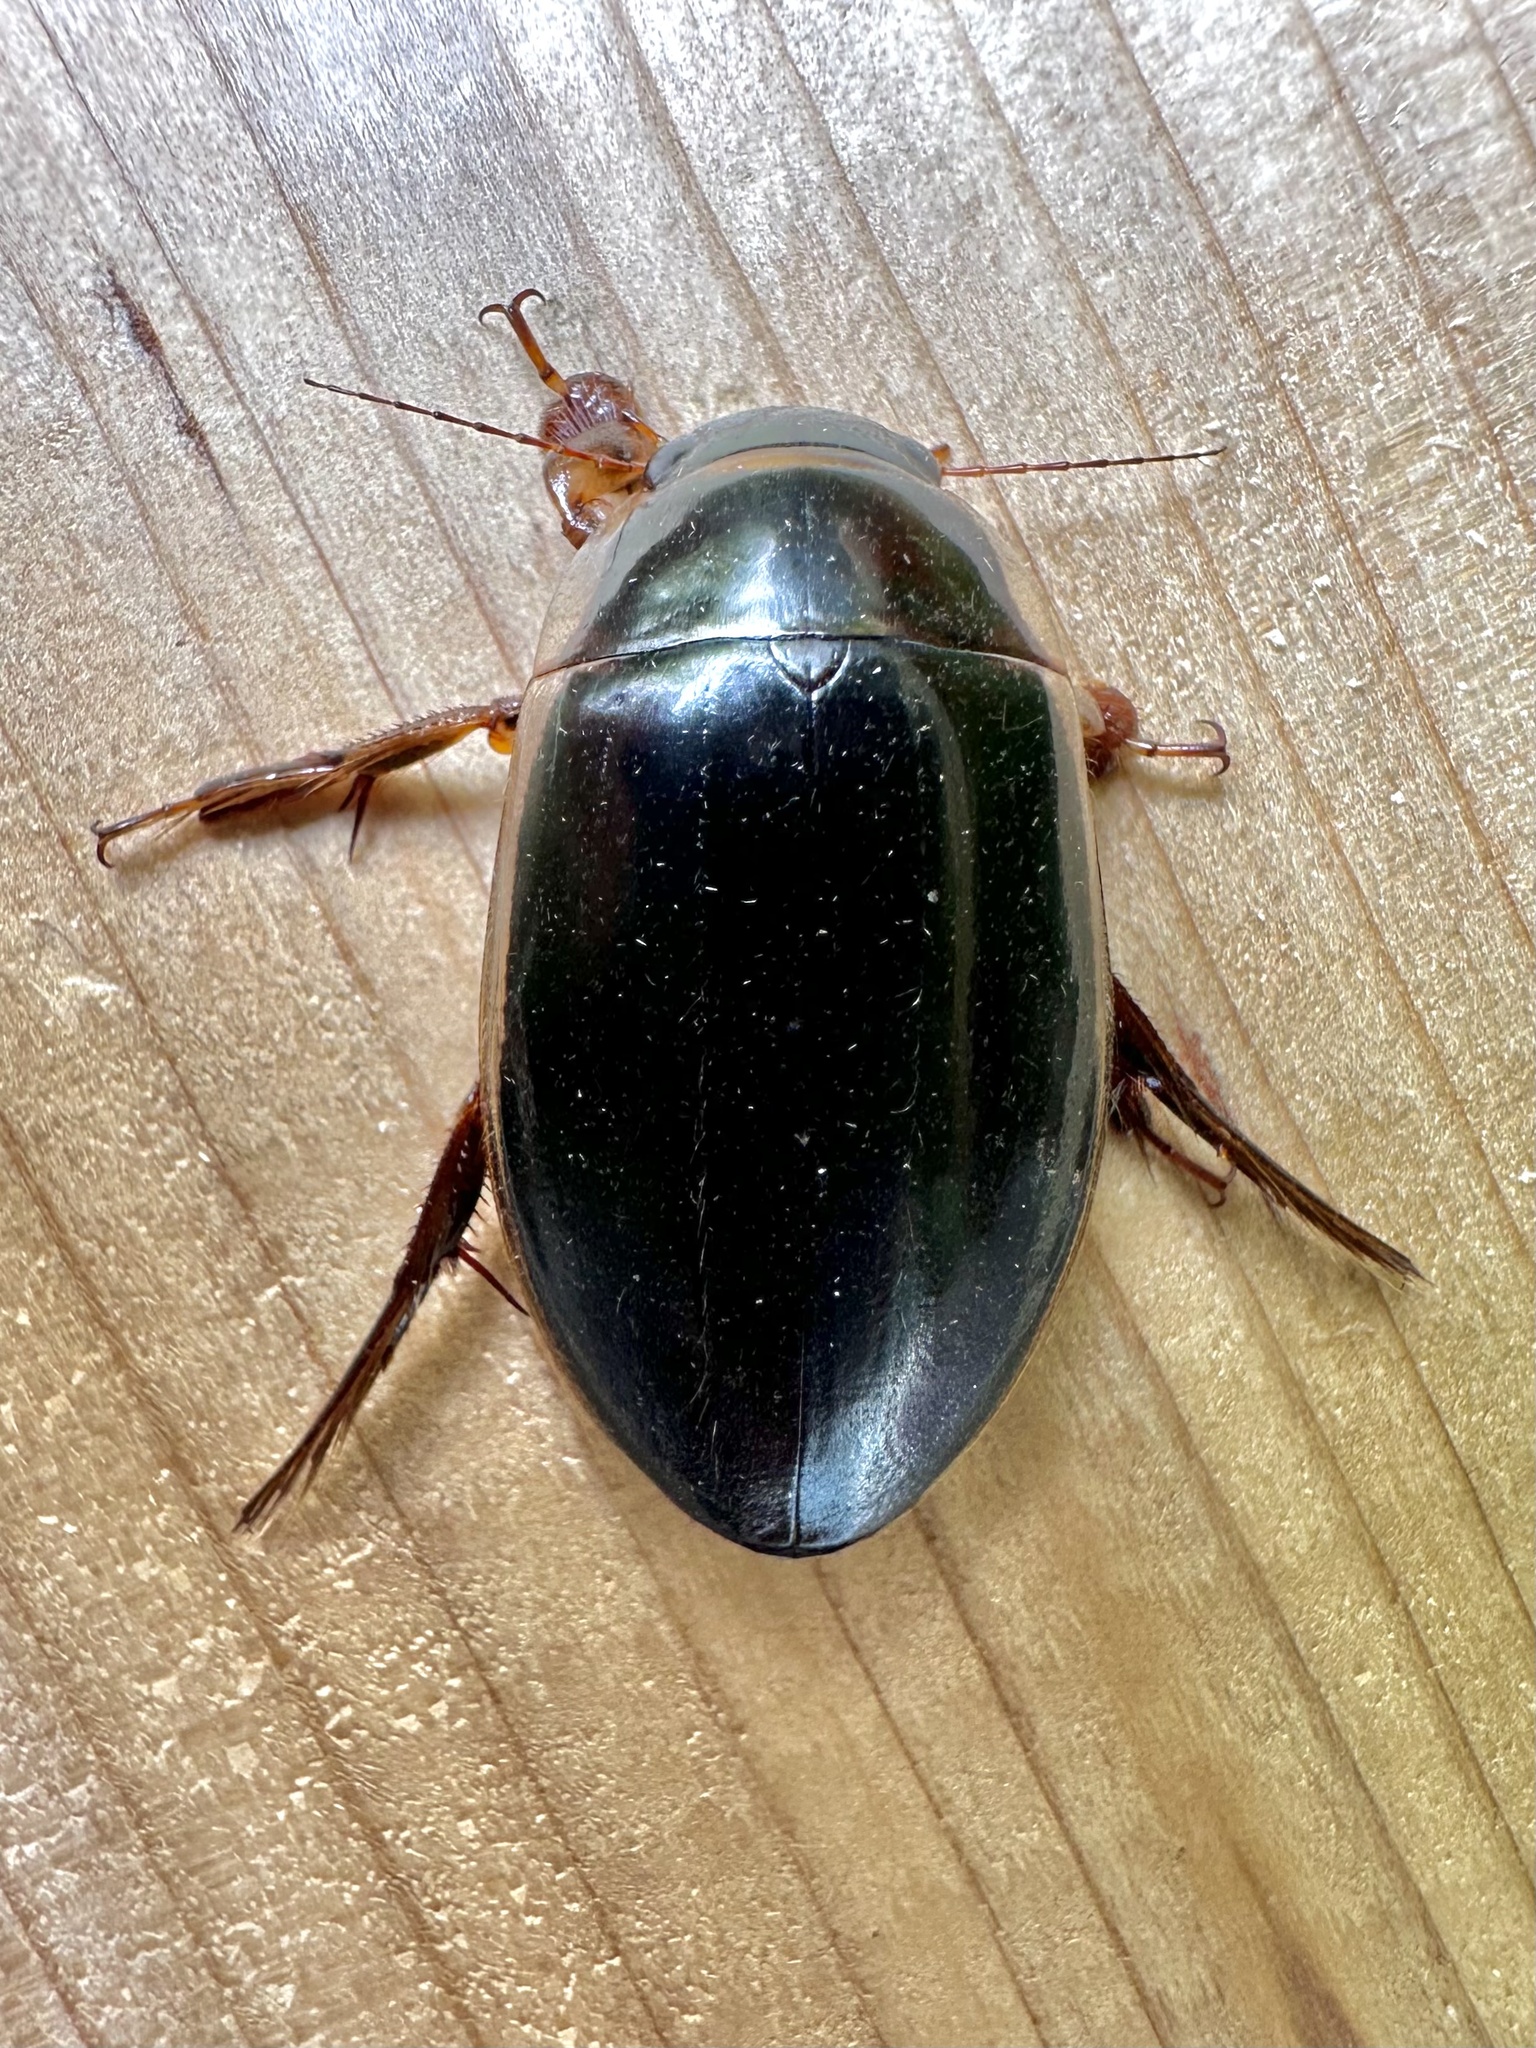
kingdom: Animalia
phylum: Arthropoda
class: Insecta
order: Coleoptera
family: Dytiscidae
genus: Dytiscus
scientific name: Dytiscus
